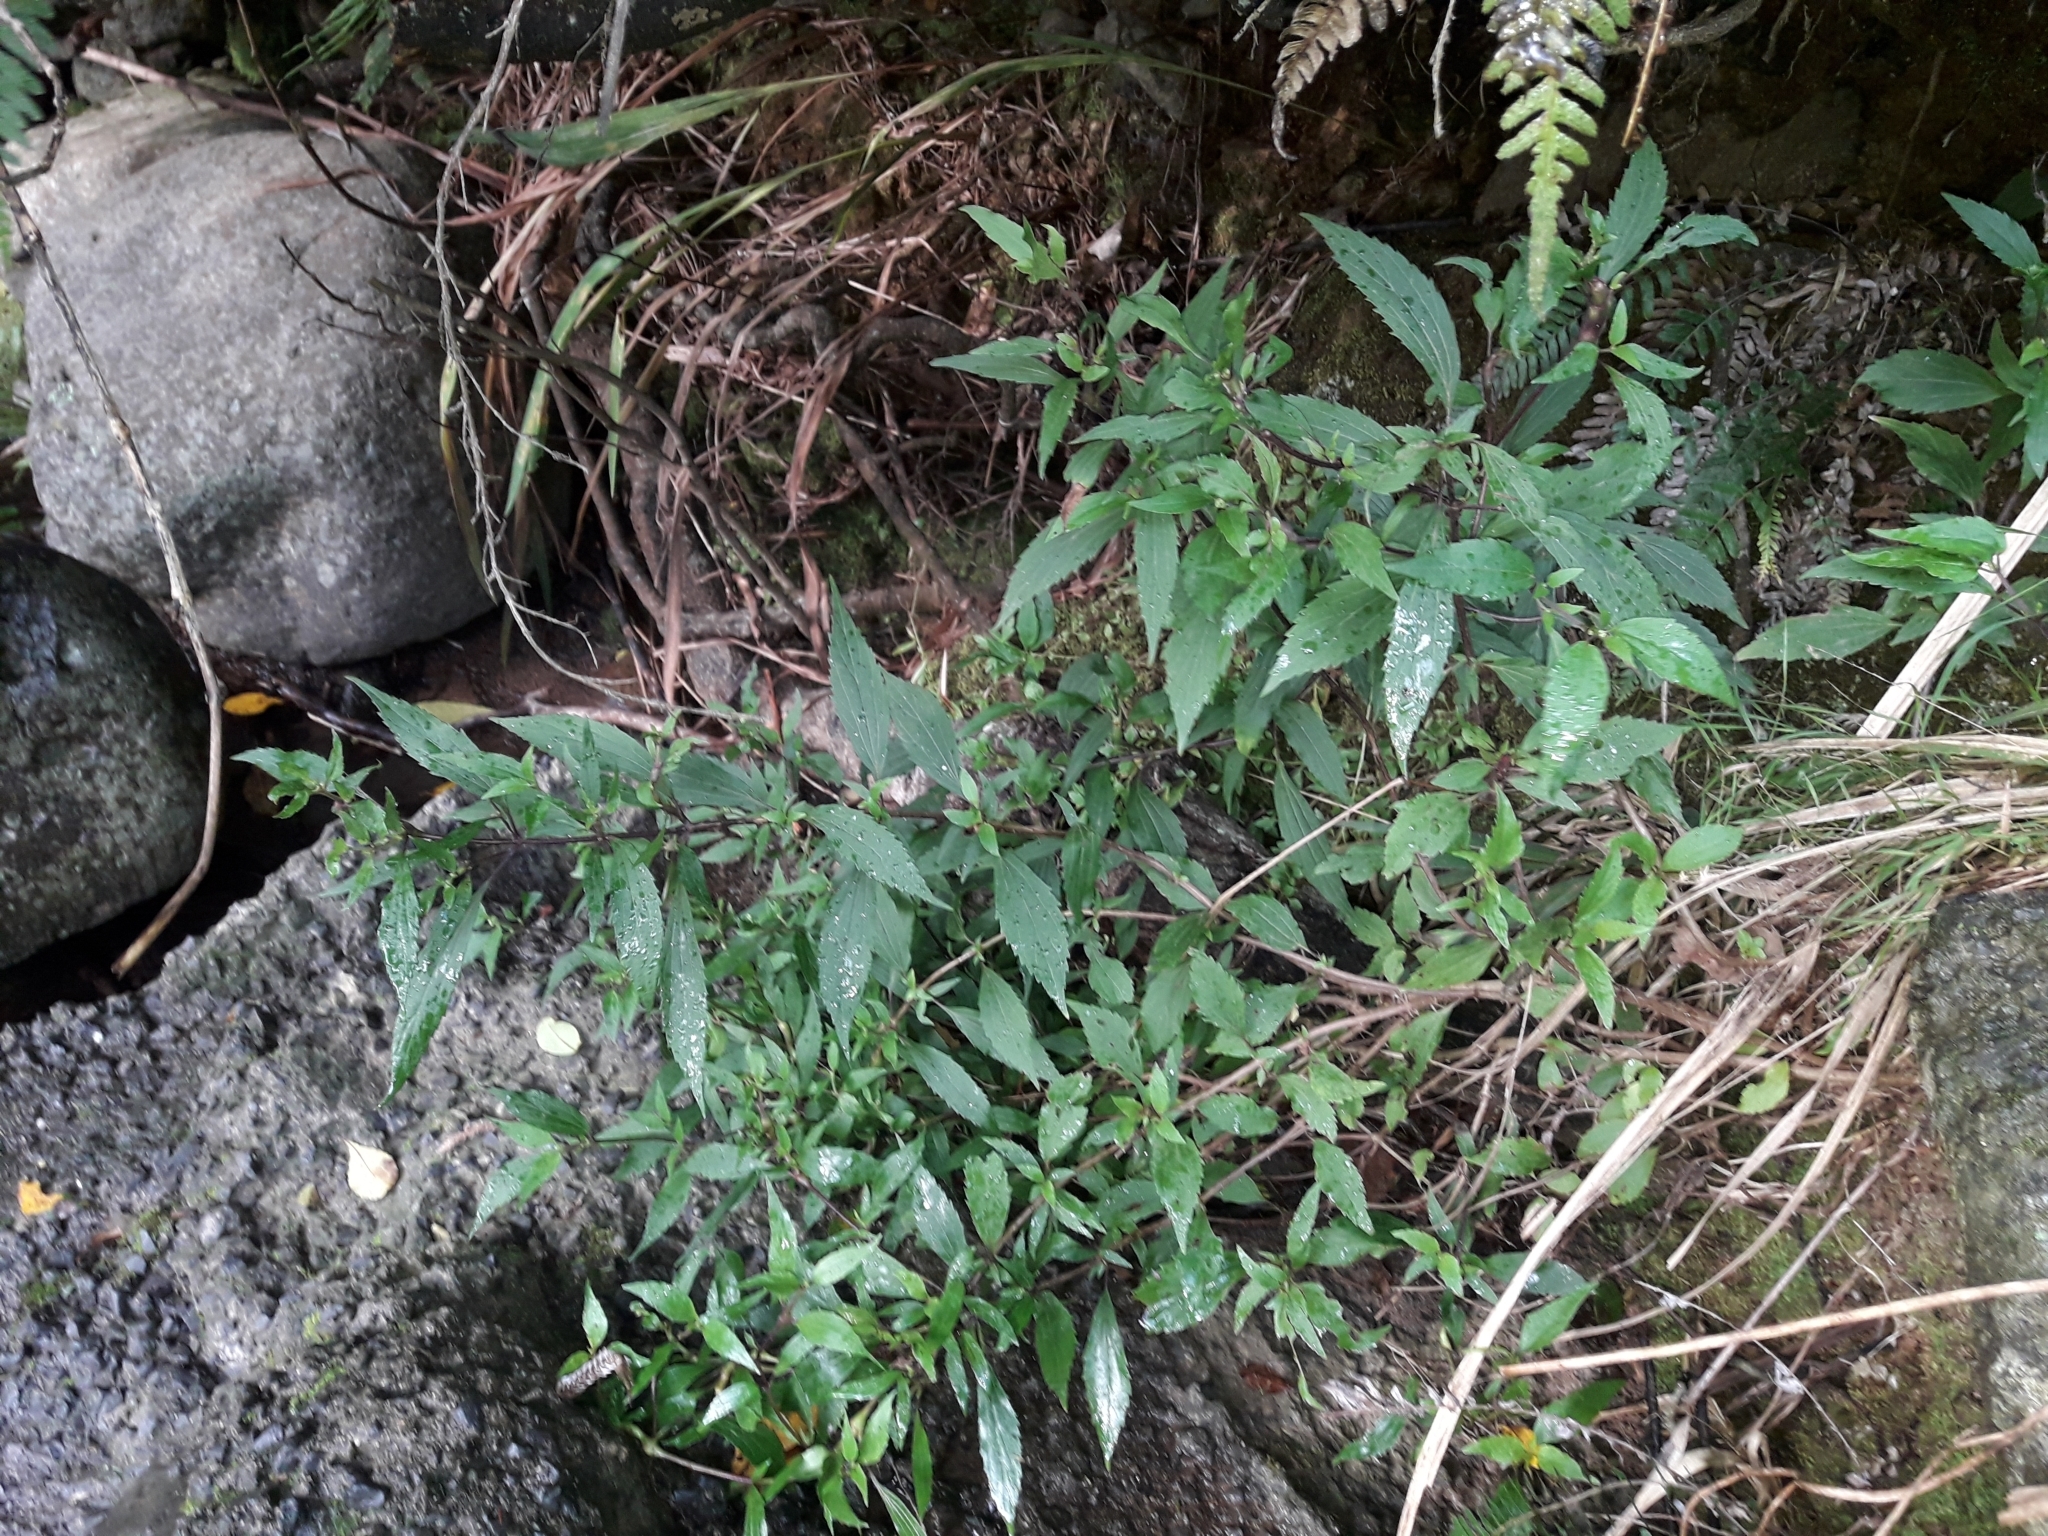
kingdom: Plantae
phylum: Tracheophyta
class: Magnoliopsida
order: Asterales
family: Asteraceae
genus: Ageratina
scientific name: Ageratina riparia
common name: Creeping croftonweed
